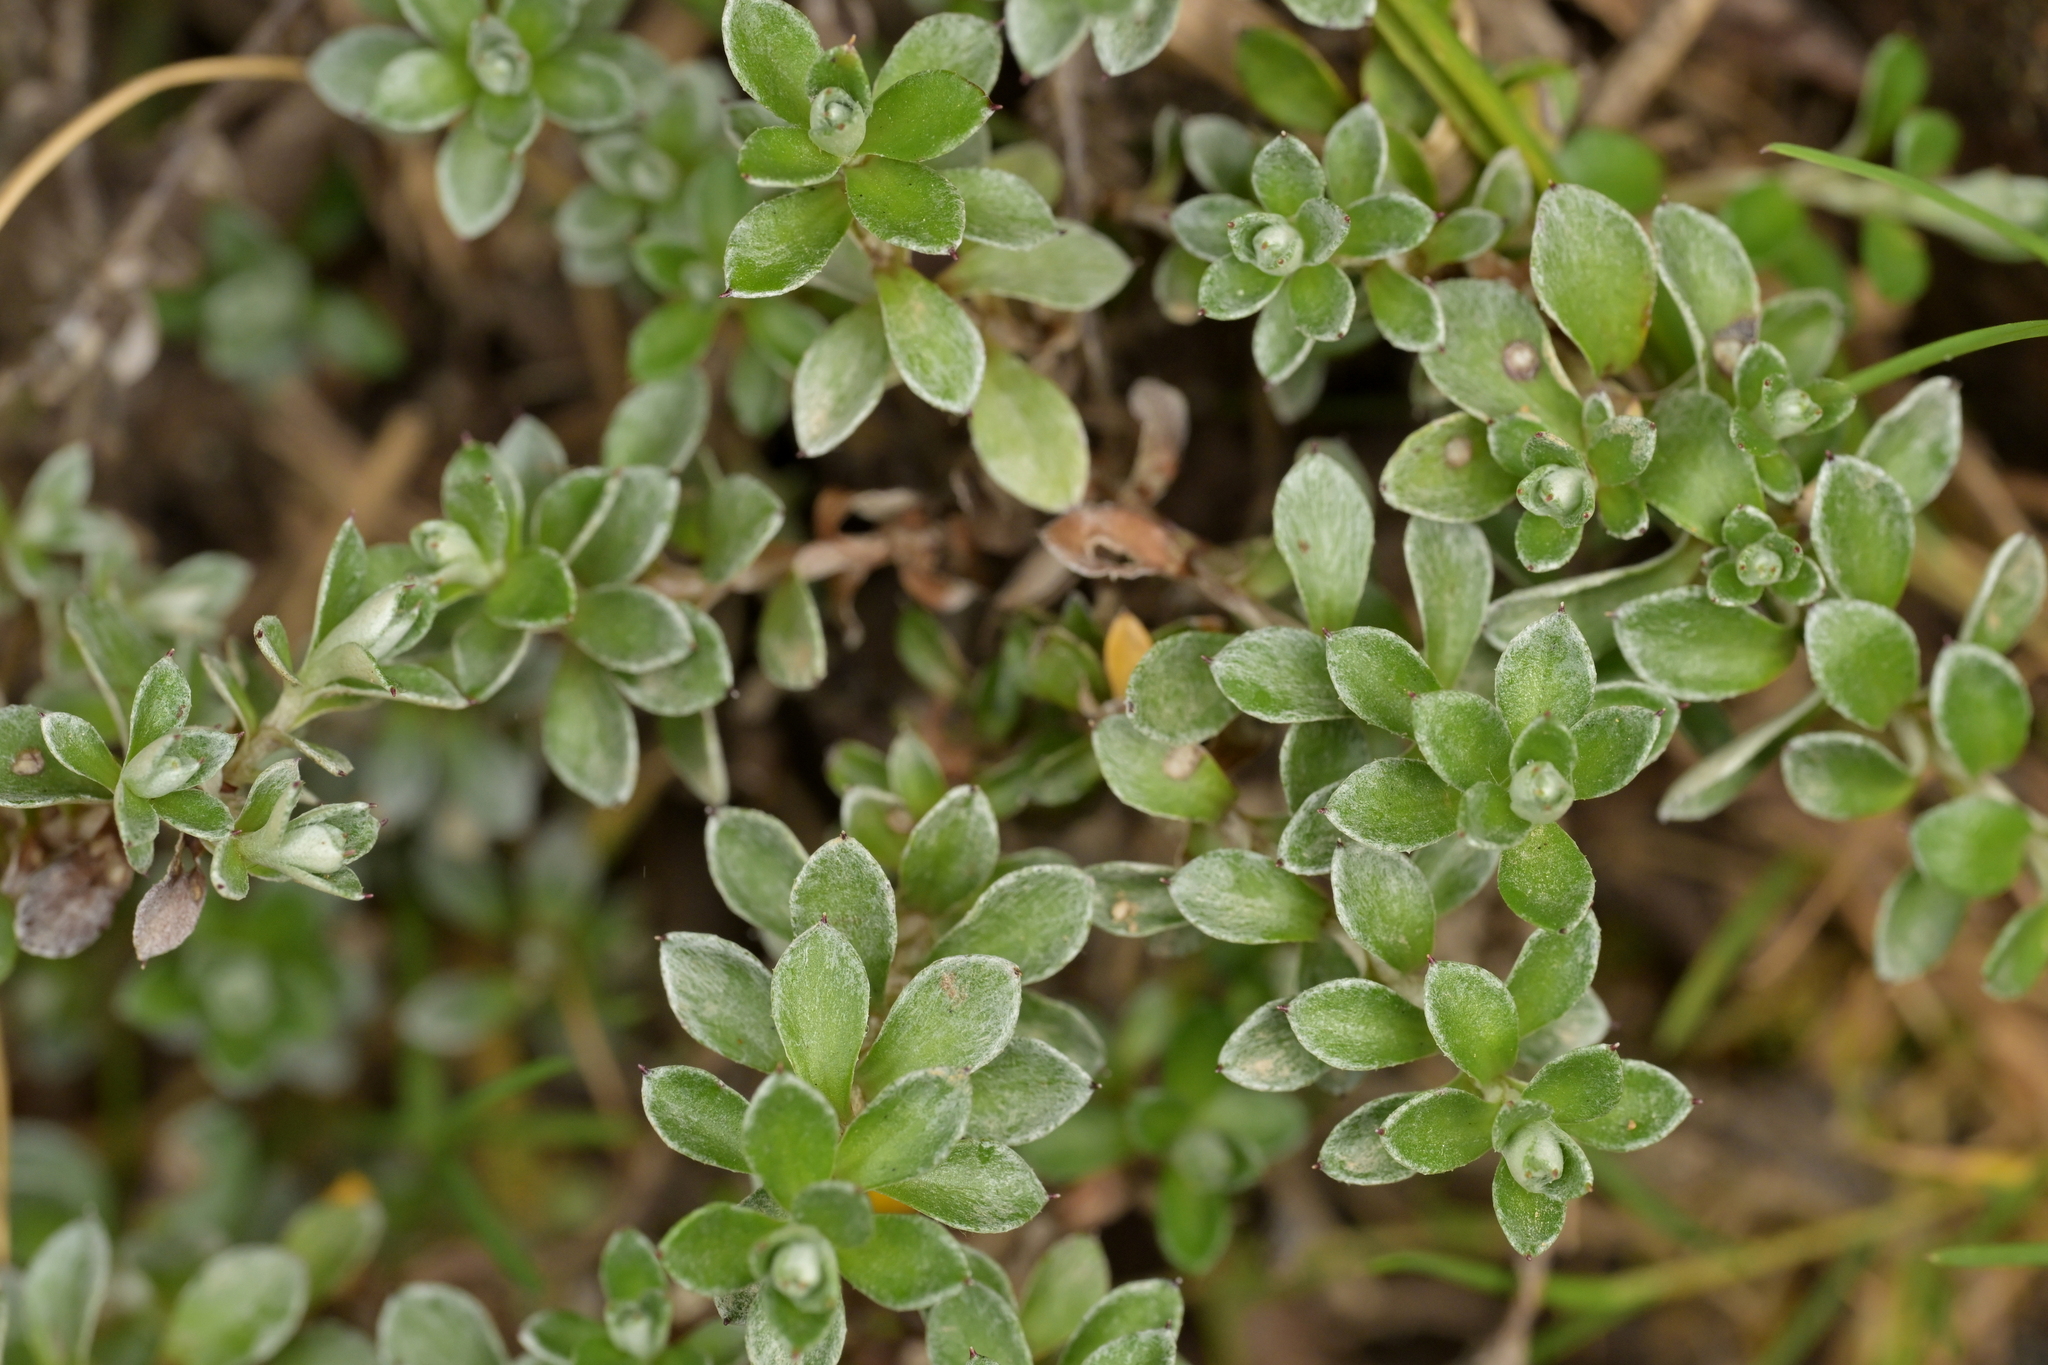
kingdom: Plantae
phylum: Tracheophyta
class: Magnoliopsida
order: Asterales
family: Asteraceae
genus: Anaphalioides
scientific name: Anaphalioides alpina
